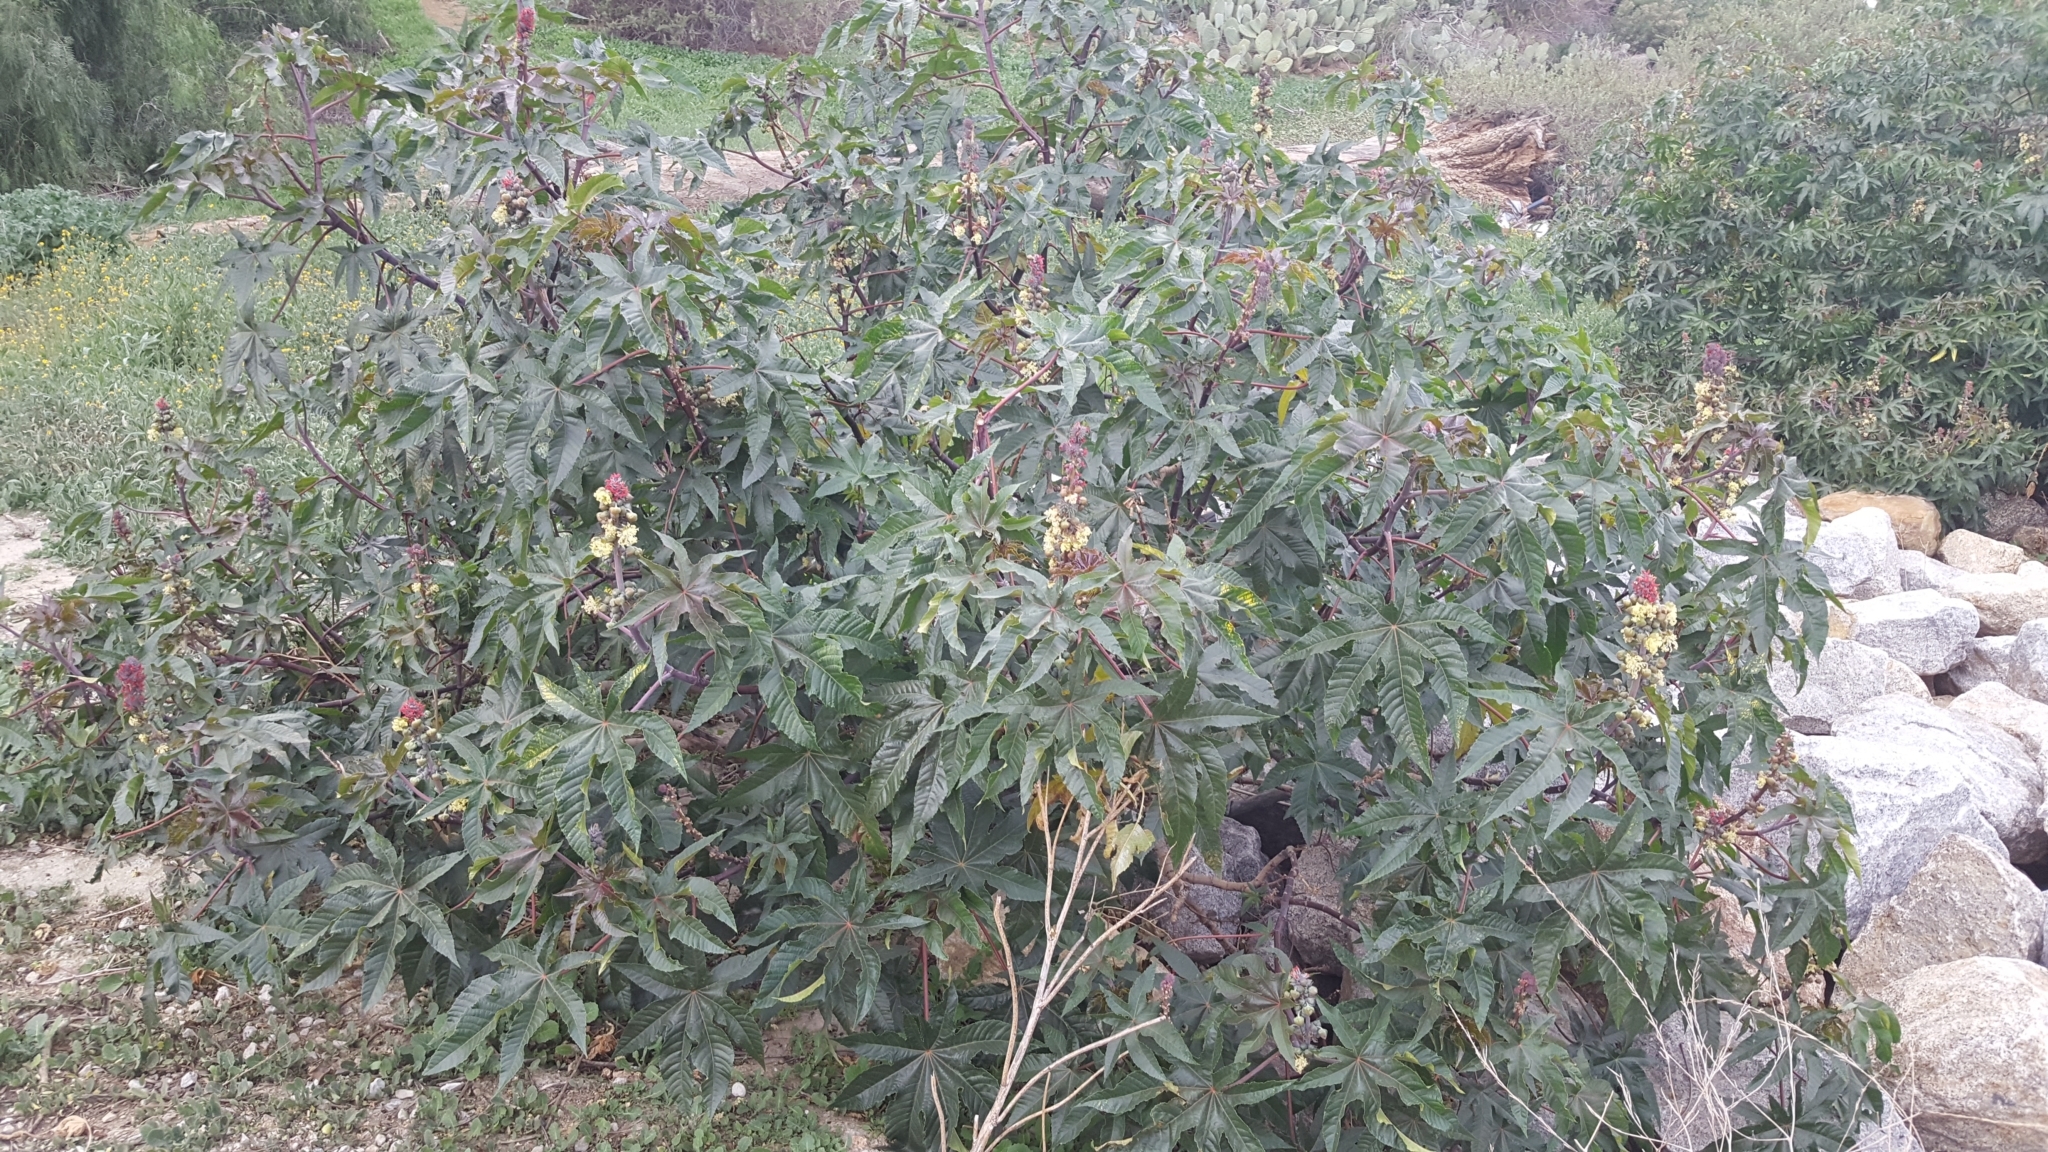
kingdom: Plantae
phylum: Tracheophyta
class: Magnoliopsida
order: Malpighiales
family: Euphorbiaceae
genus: Ricinus
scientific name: Ricinus communis
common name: Castor-oil-plant
